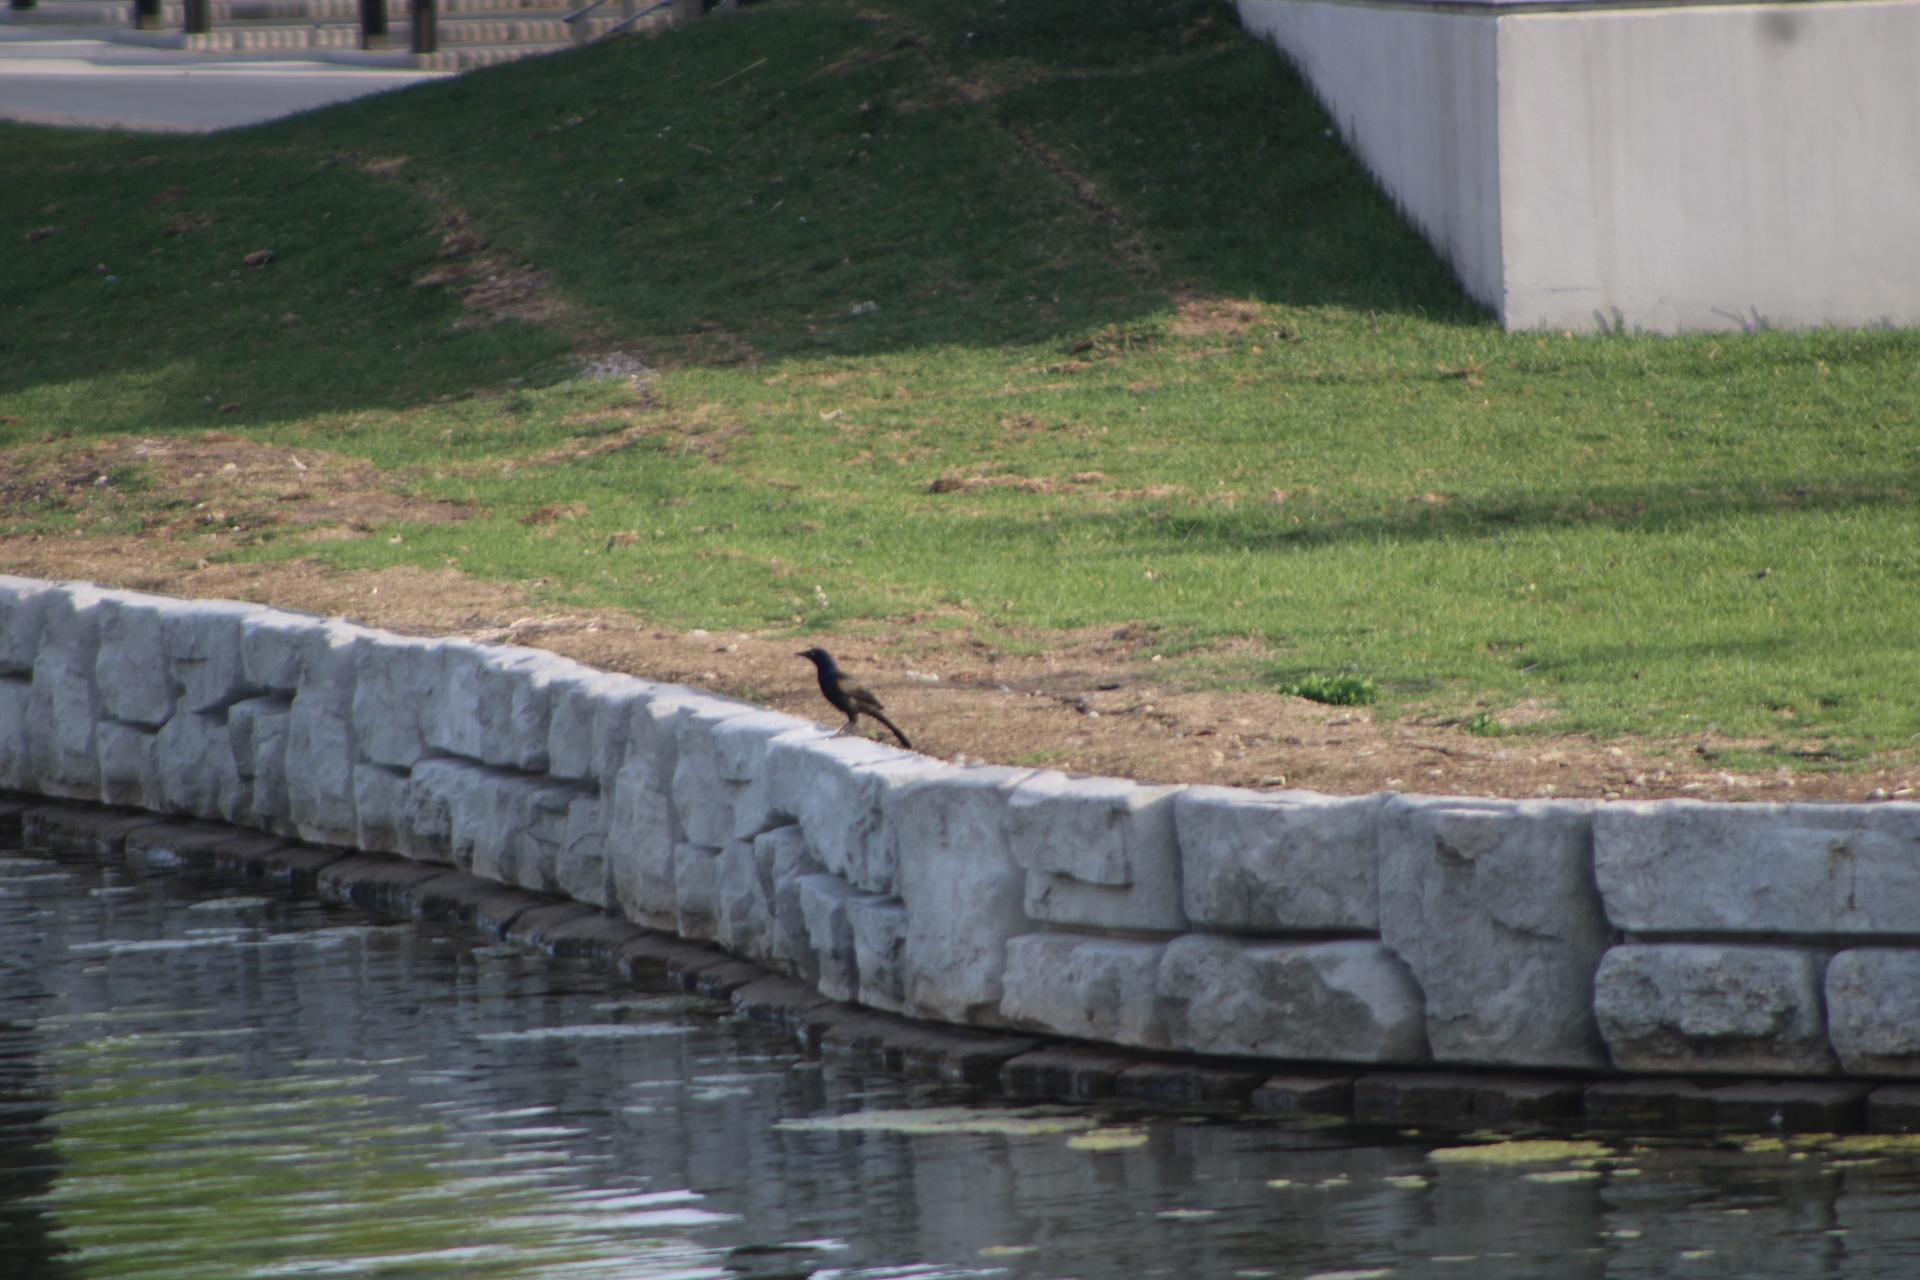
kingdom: Animalia
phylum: Chordata
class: Aves
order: Passeriformes
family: Icteridae
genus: Quiscalus
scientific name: Quiscalus quiscula
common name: Common grackle
